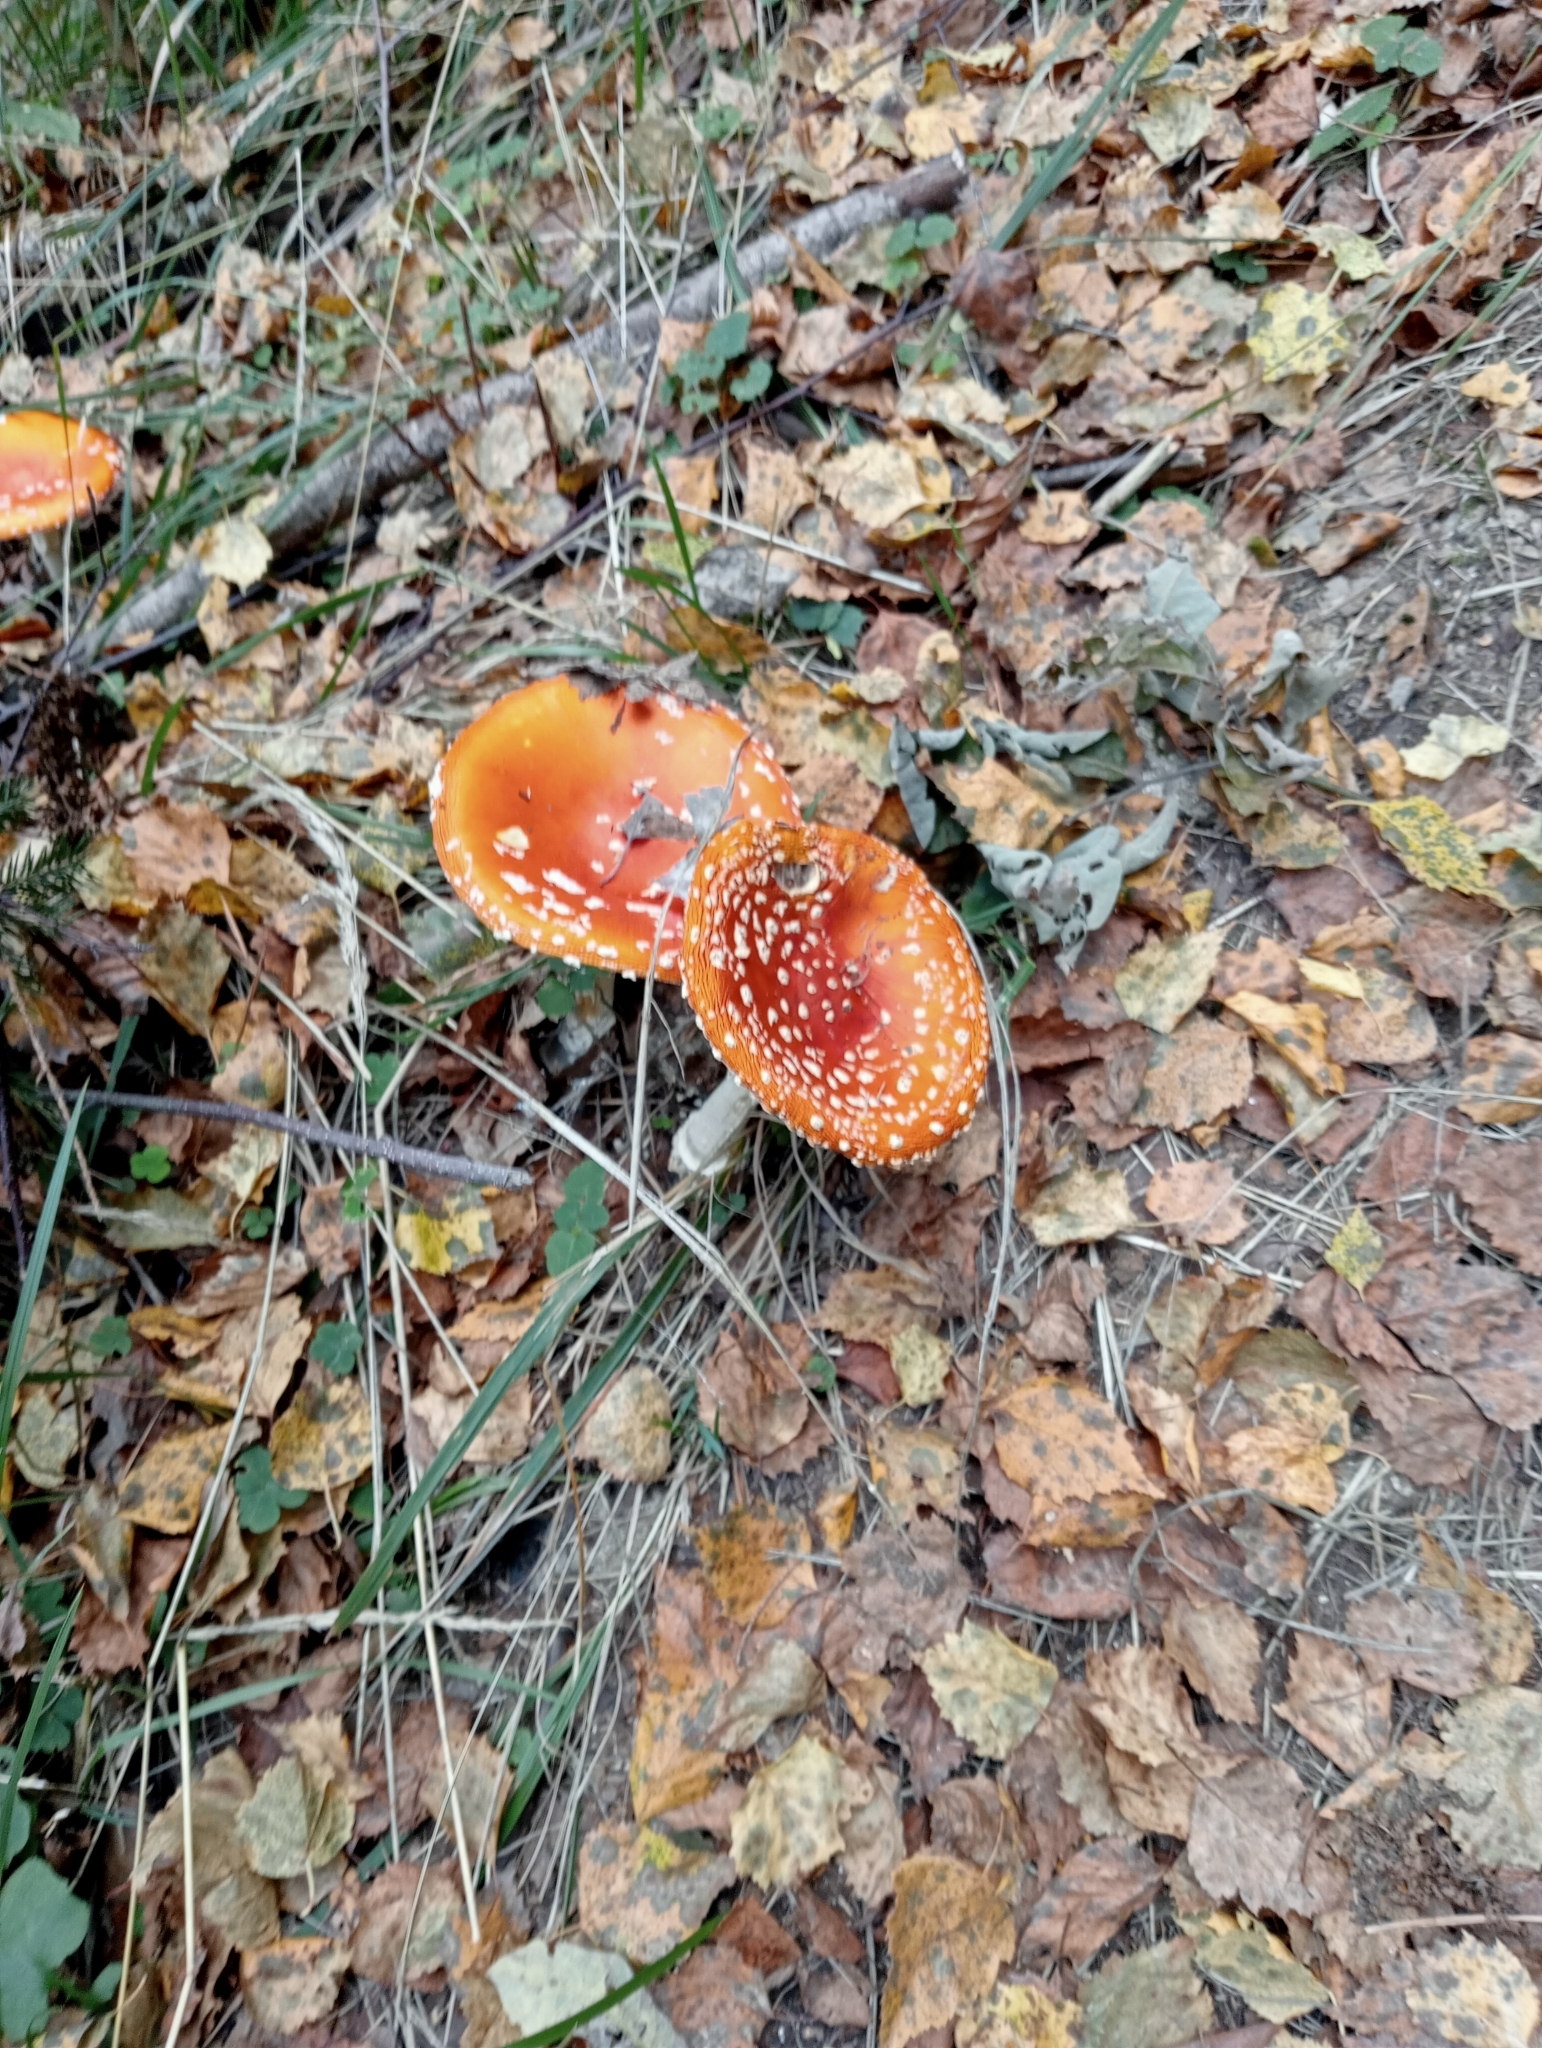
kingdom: Fungi
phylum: Basidiomycota
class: Agaricomycetes
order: Agaricales
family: Amanitaceae
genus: Amanita
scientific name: Amanita muscaria
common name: Fly agaric
